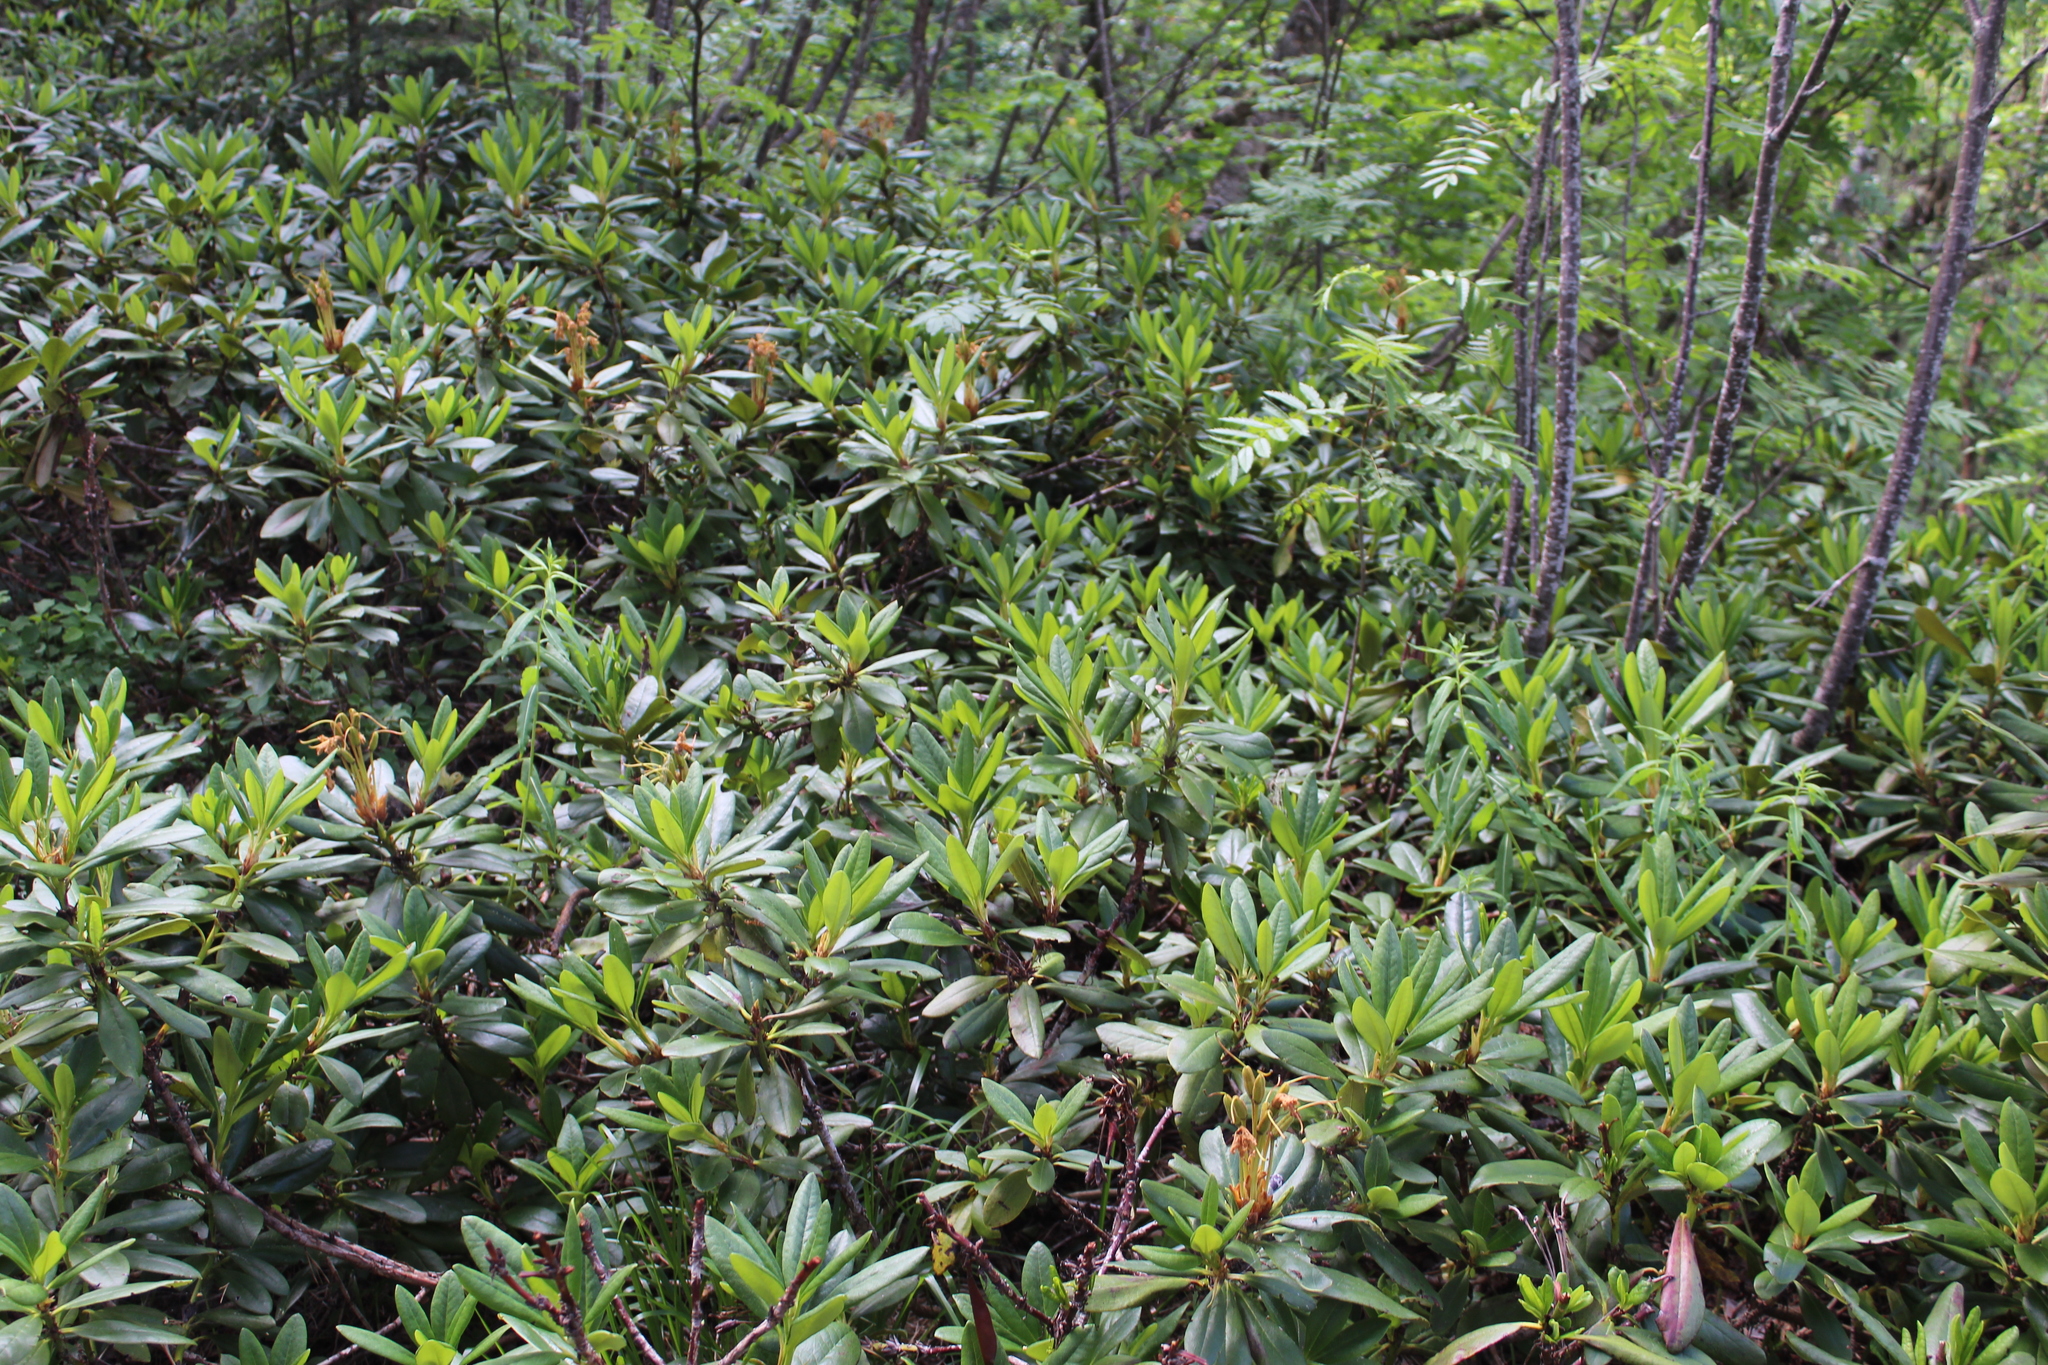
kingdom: Plantae
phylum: Tracheophyta
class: Magnoliopsida
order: Ericales
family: Ericaceae
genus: Rhododendron
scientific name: Rhododendron caucasicum
